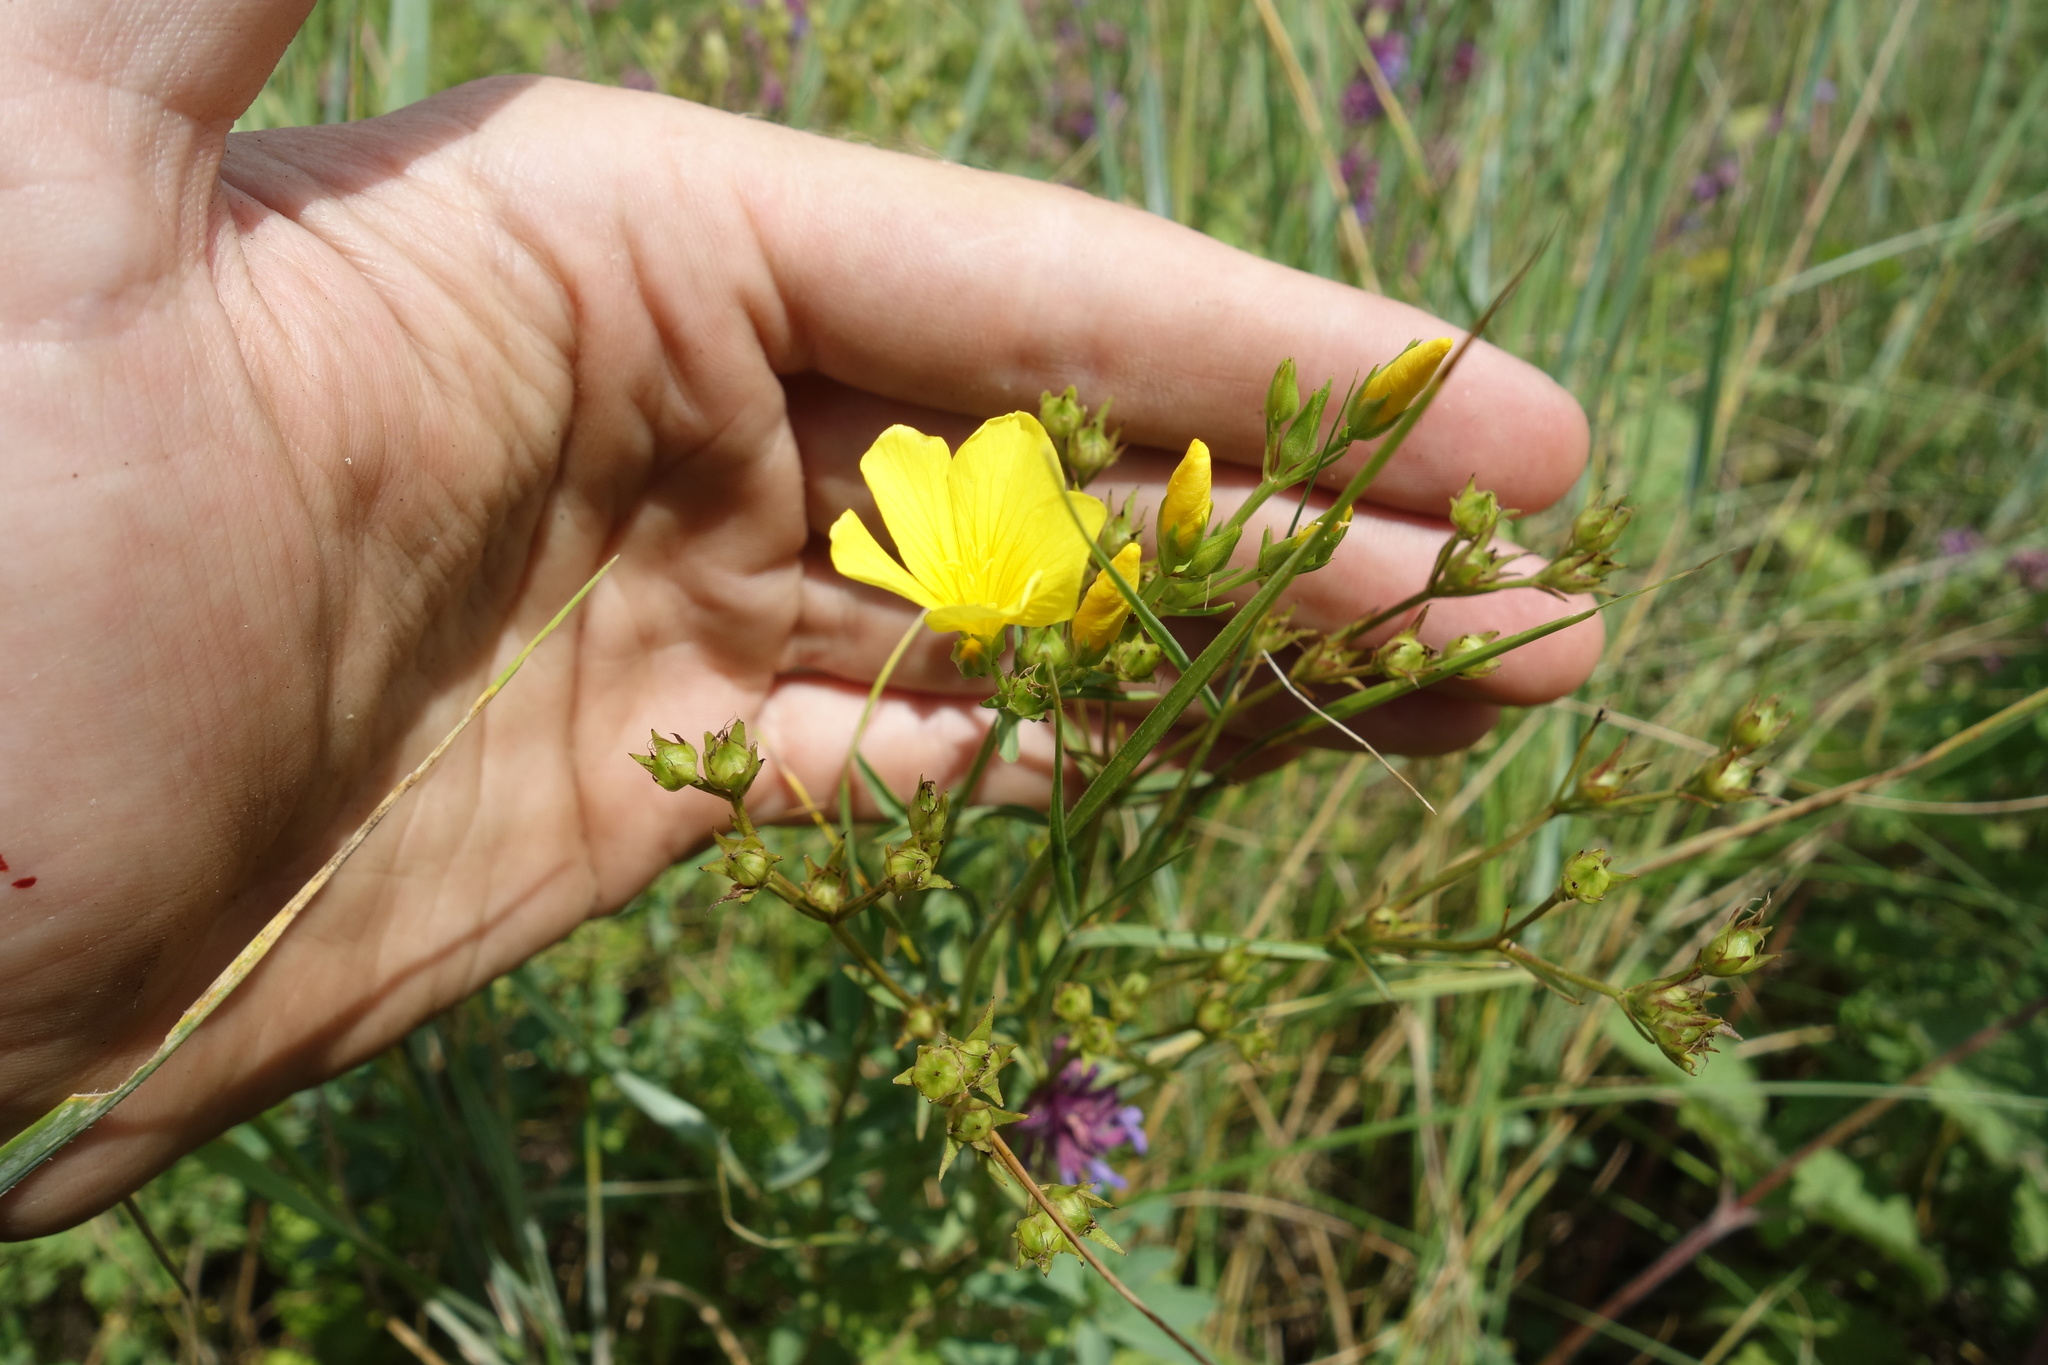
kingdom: Plantae
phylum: Tracheophyta
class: Magnoliopsida
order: Malpighiales
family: Linaceae
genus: Linum
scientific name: Linum flavum
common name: Yellow flax
